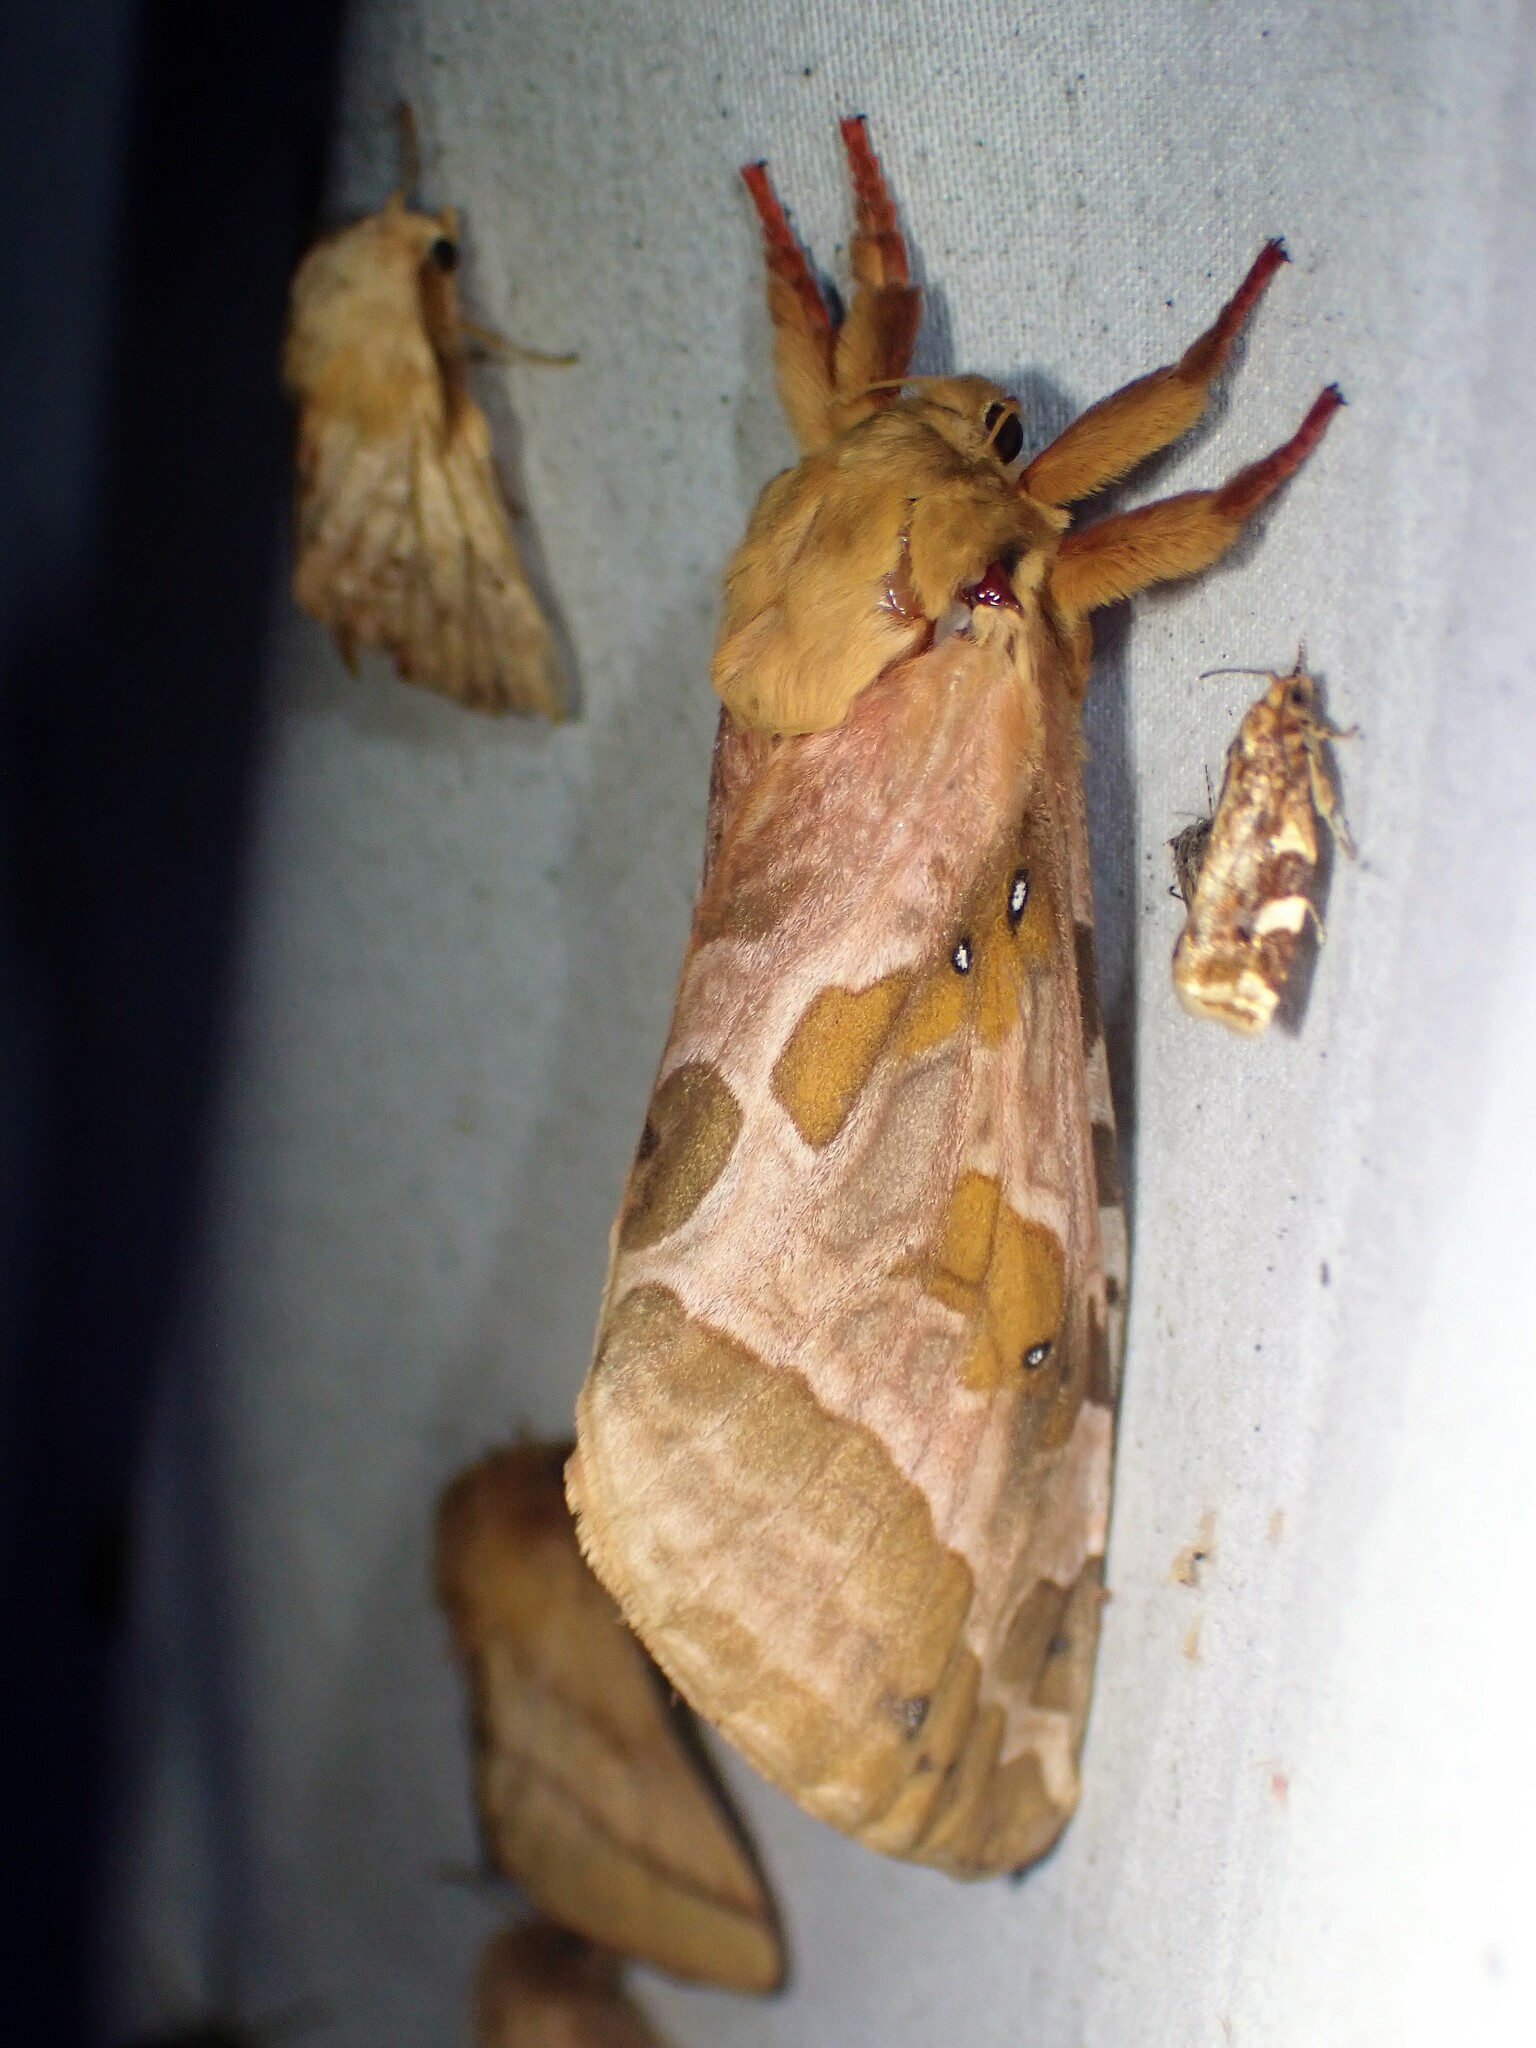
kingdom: Animalia
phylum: Arthropoda
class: Insecta
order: Lepidoptera
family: Hepialidae
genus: Sthenopis
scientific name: Sthenopis purpurascens
